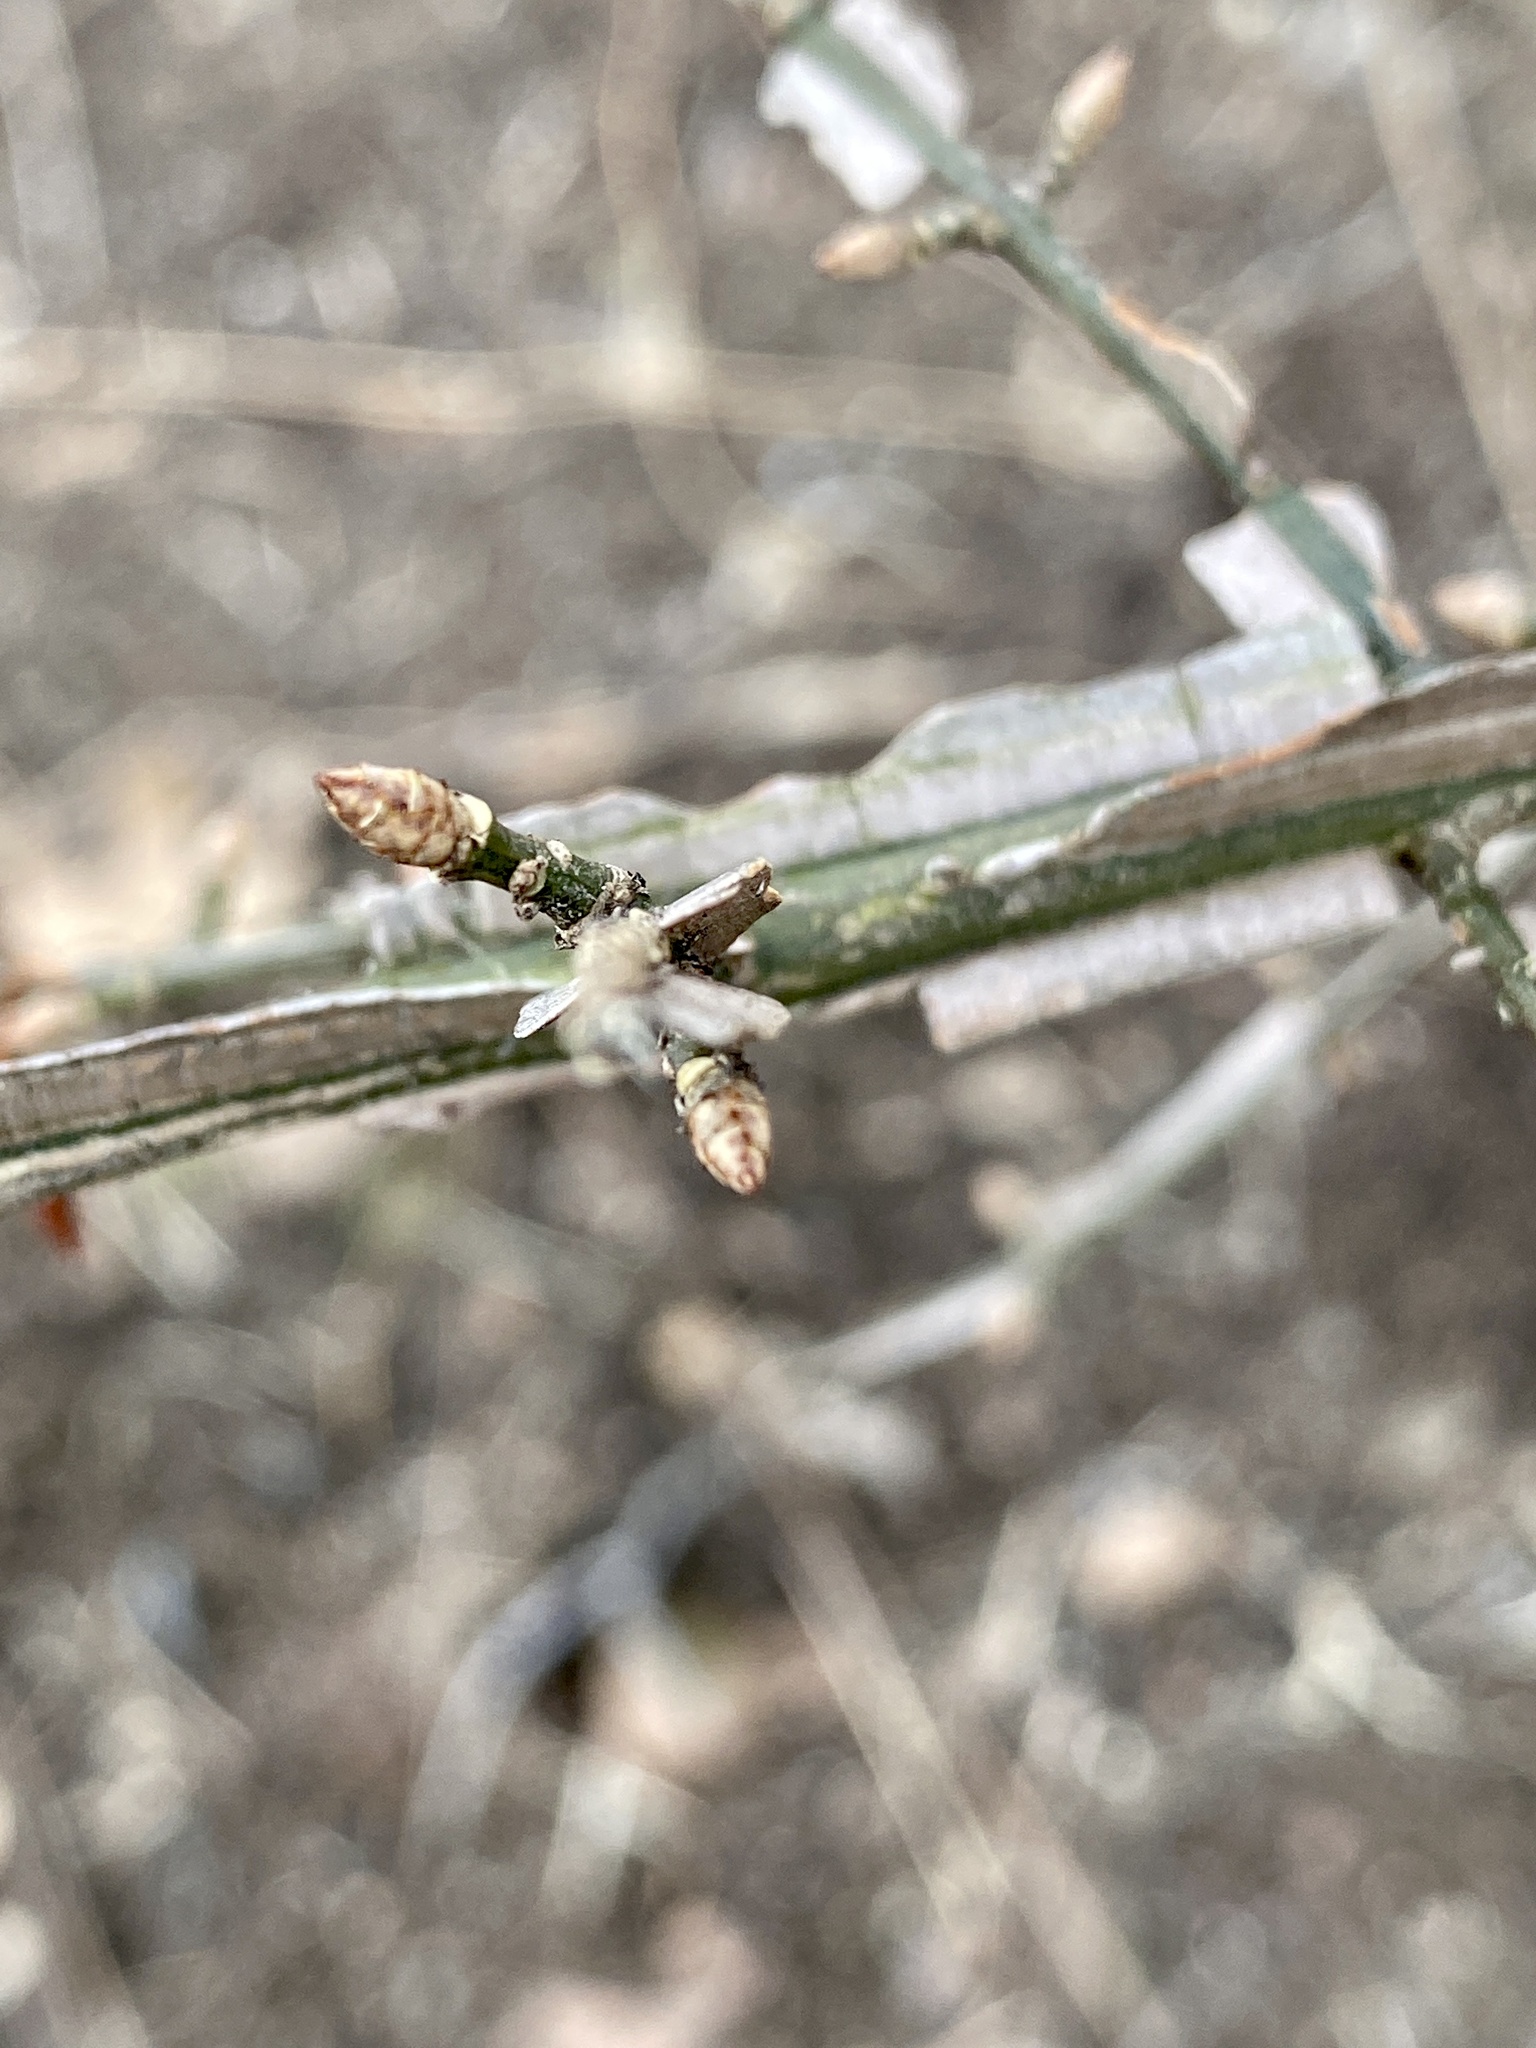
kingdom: Plantae
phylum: Tracheophyta
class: Magnoliopsida
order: Celastrales
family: Celastraceae
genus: Euonymus
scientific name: Euonymus alatus
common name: Winged euonymus
